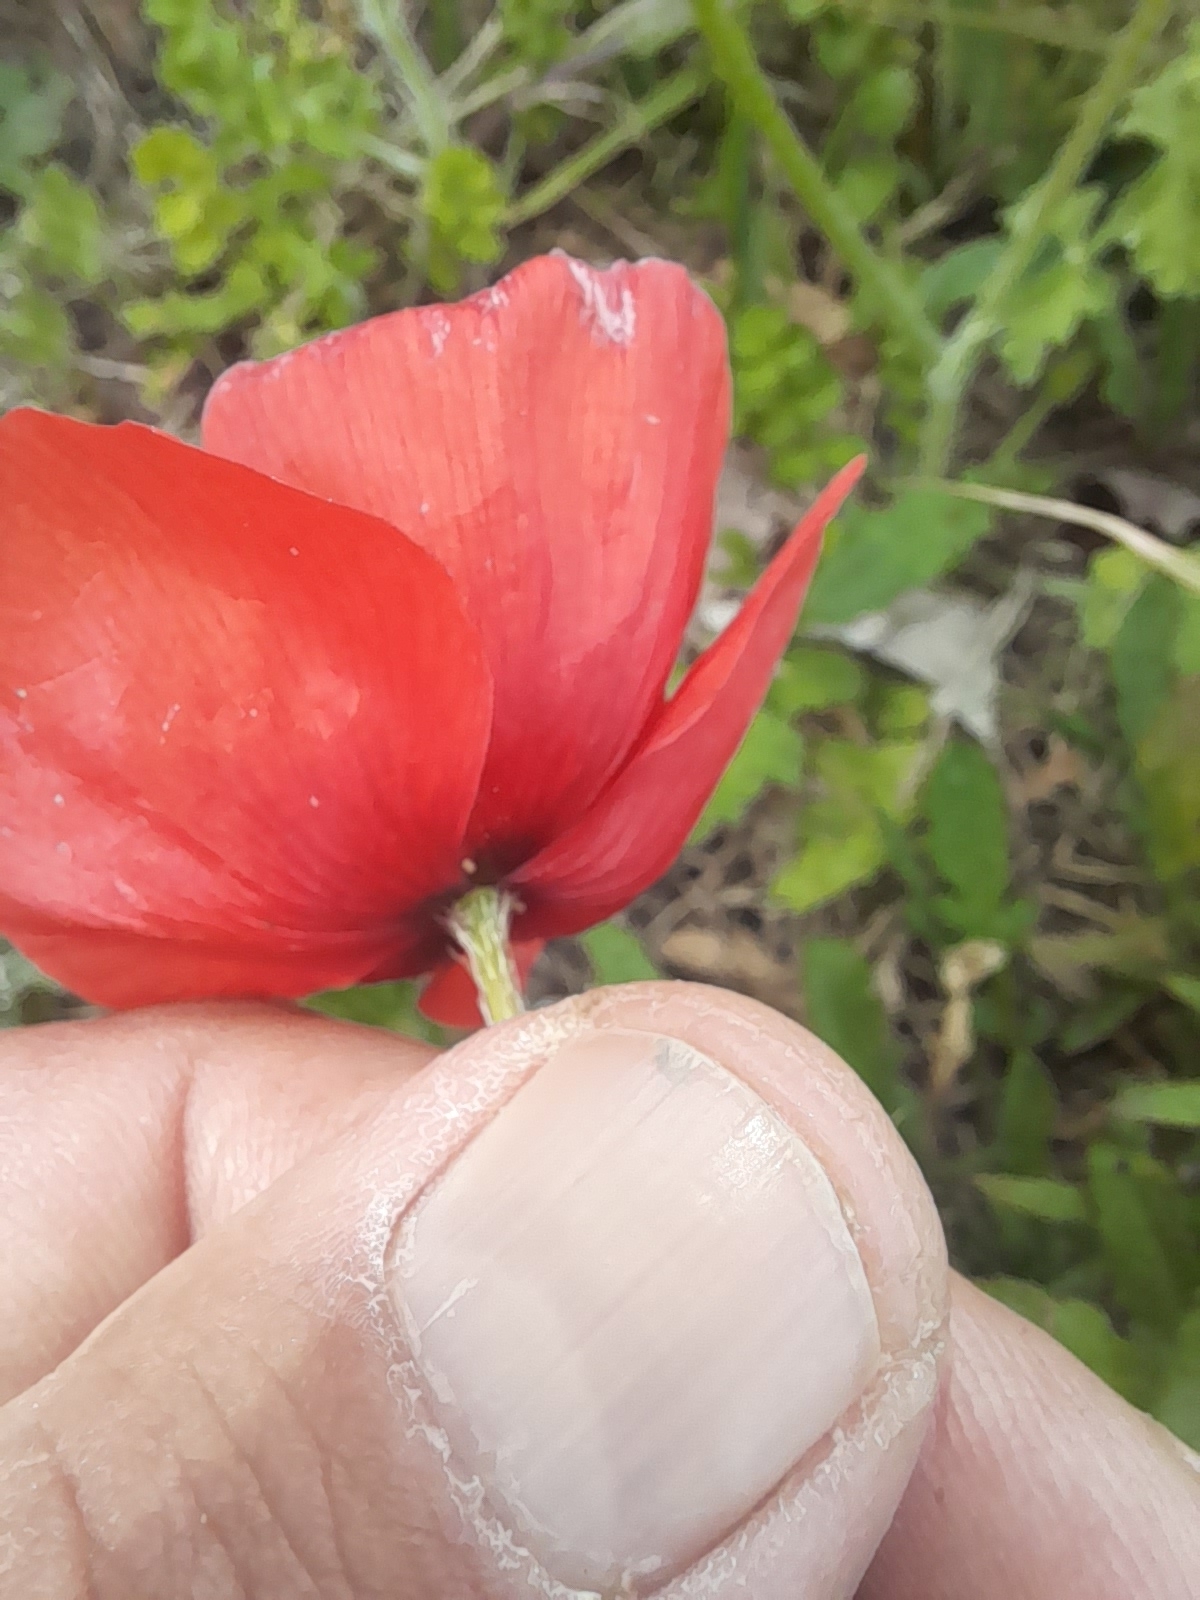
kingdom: Plantae
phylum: Tracheophyta
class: Magnoliopsida
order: Ranunculales
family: Papaveraceae
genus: Papaver
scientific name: Papaver rhoeas
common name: Corn poppy
